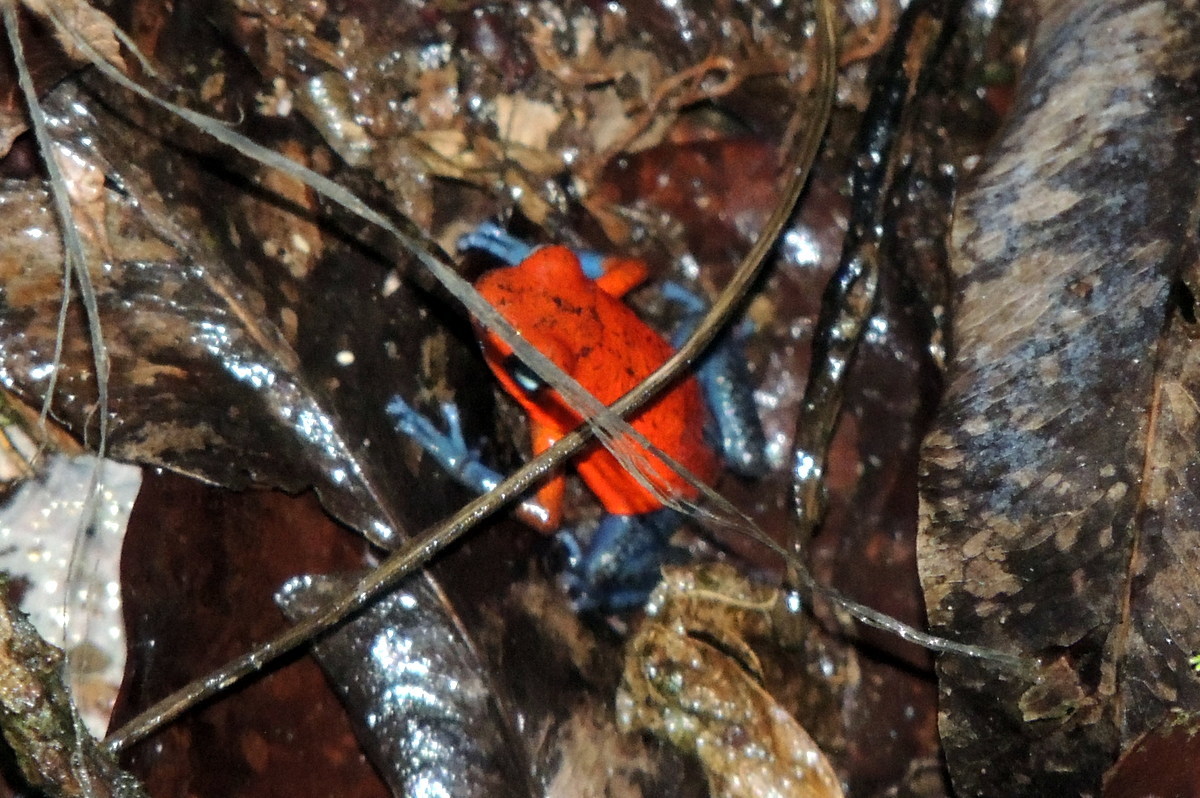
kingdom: Animalia
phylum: Chordata
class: Amphibia
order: Anura
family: Dendrobatidae
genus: Oophaga
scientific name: Oophaga pumilio
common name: Flaming poison frog
